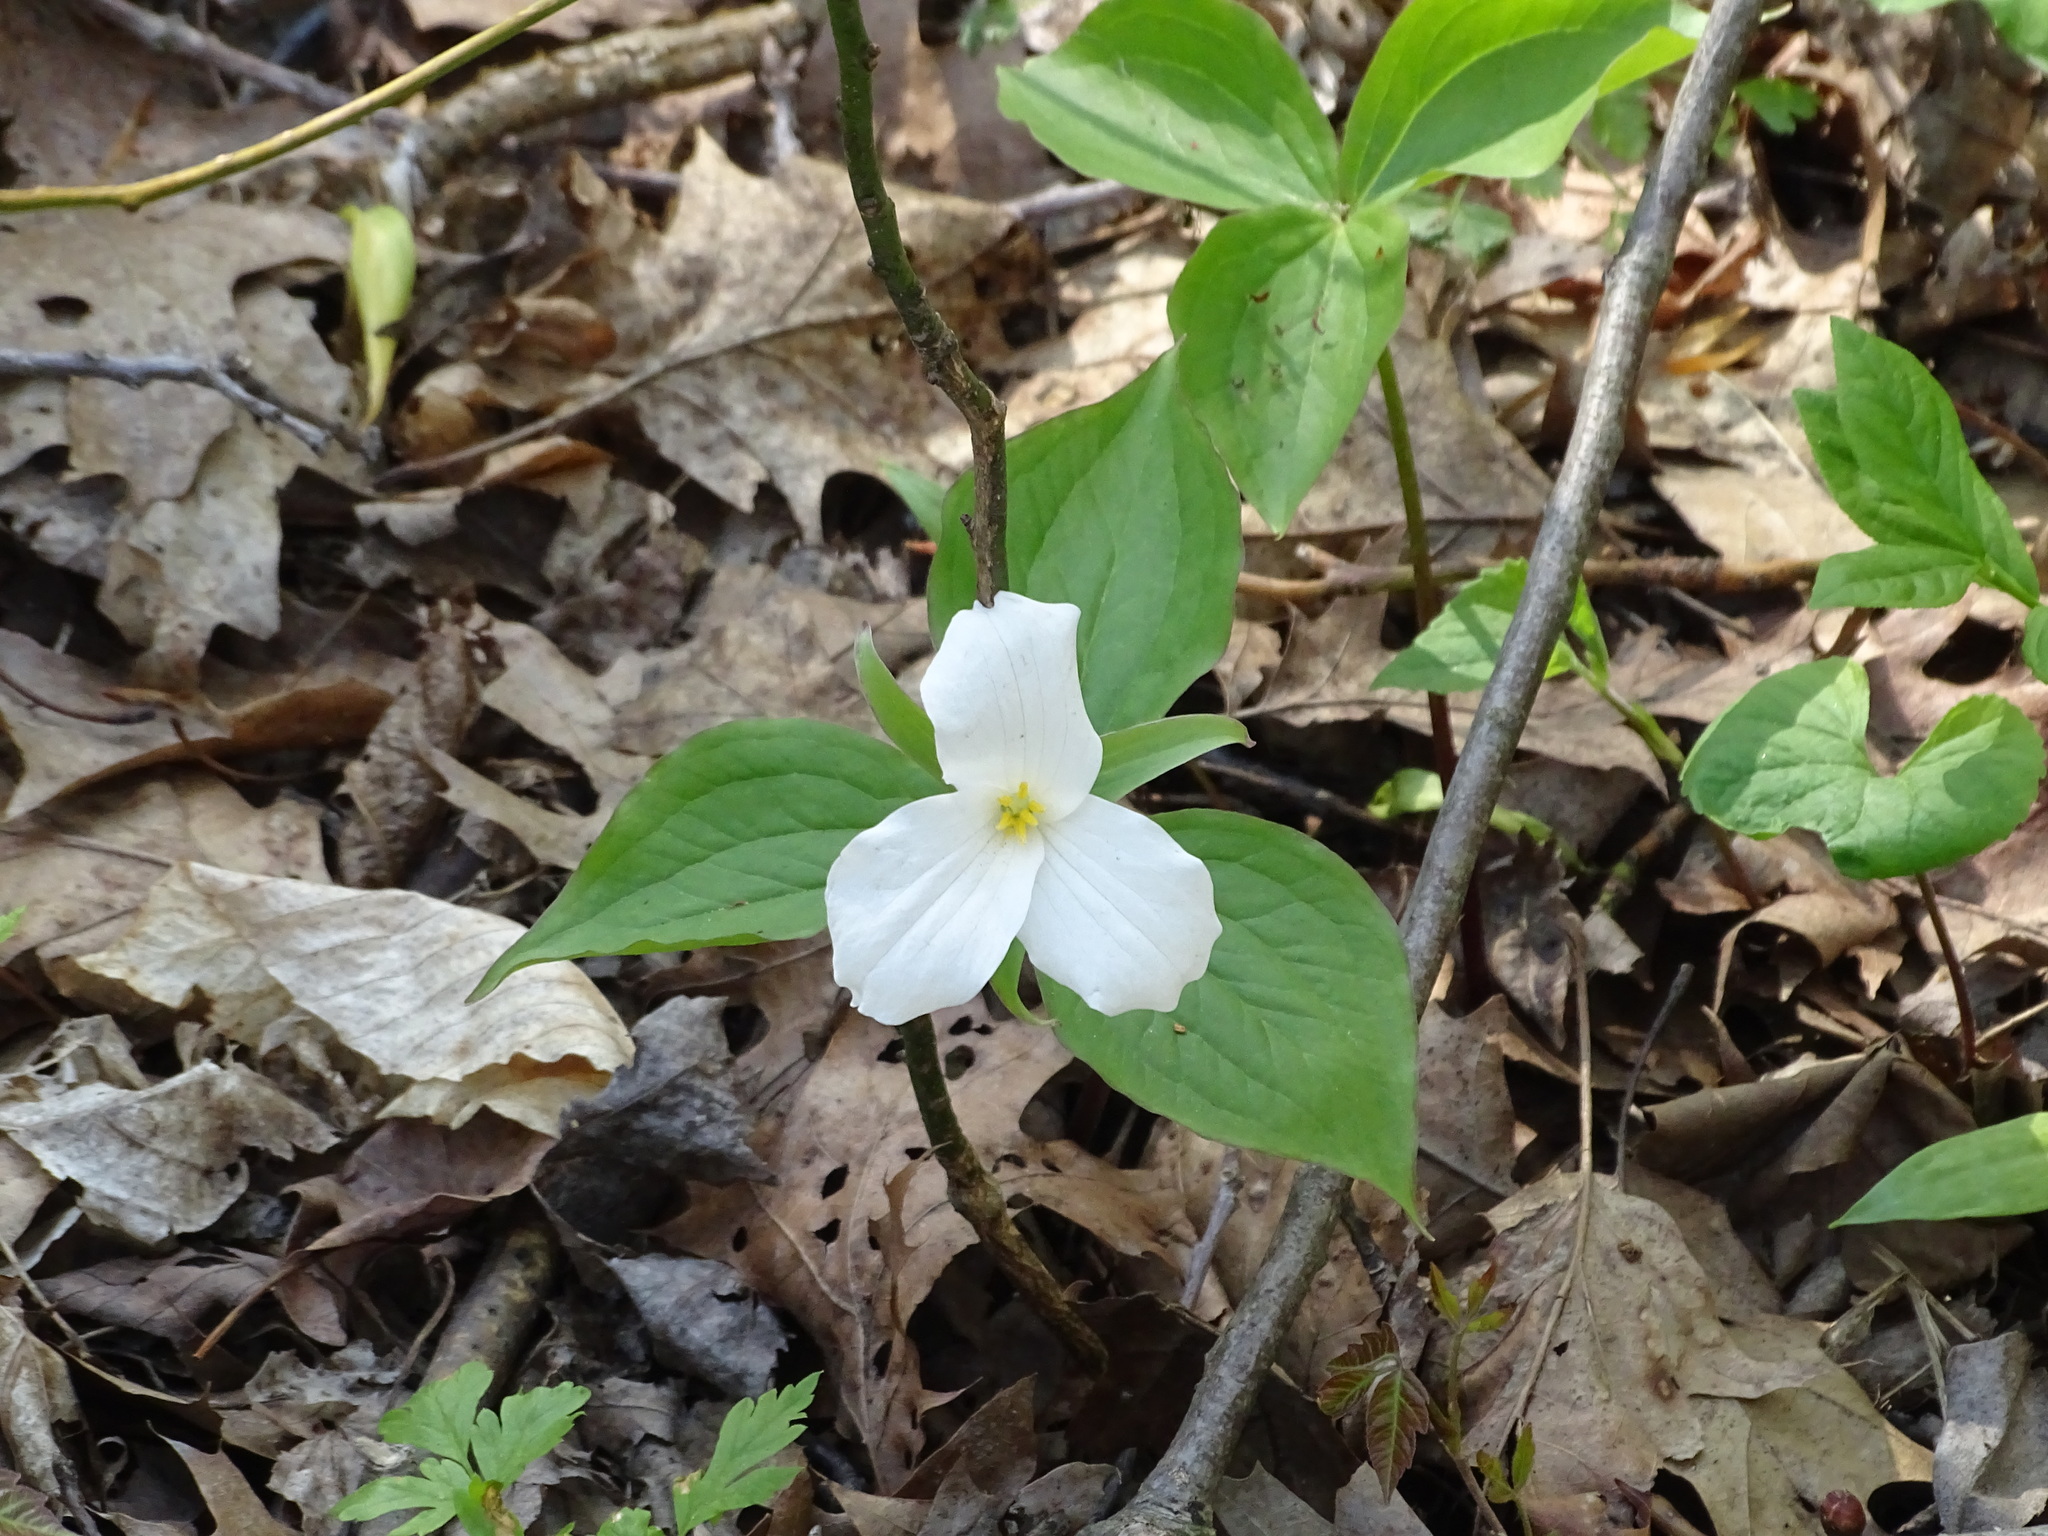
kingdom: Plantae
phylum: Tracheophyta
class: Liliopsida
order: Liliales
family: Melanthiaceae
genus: Trillium
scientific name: Trillium grandiflorum
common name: Great white trillium
